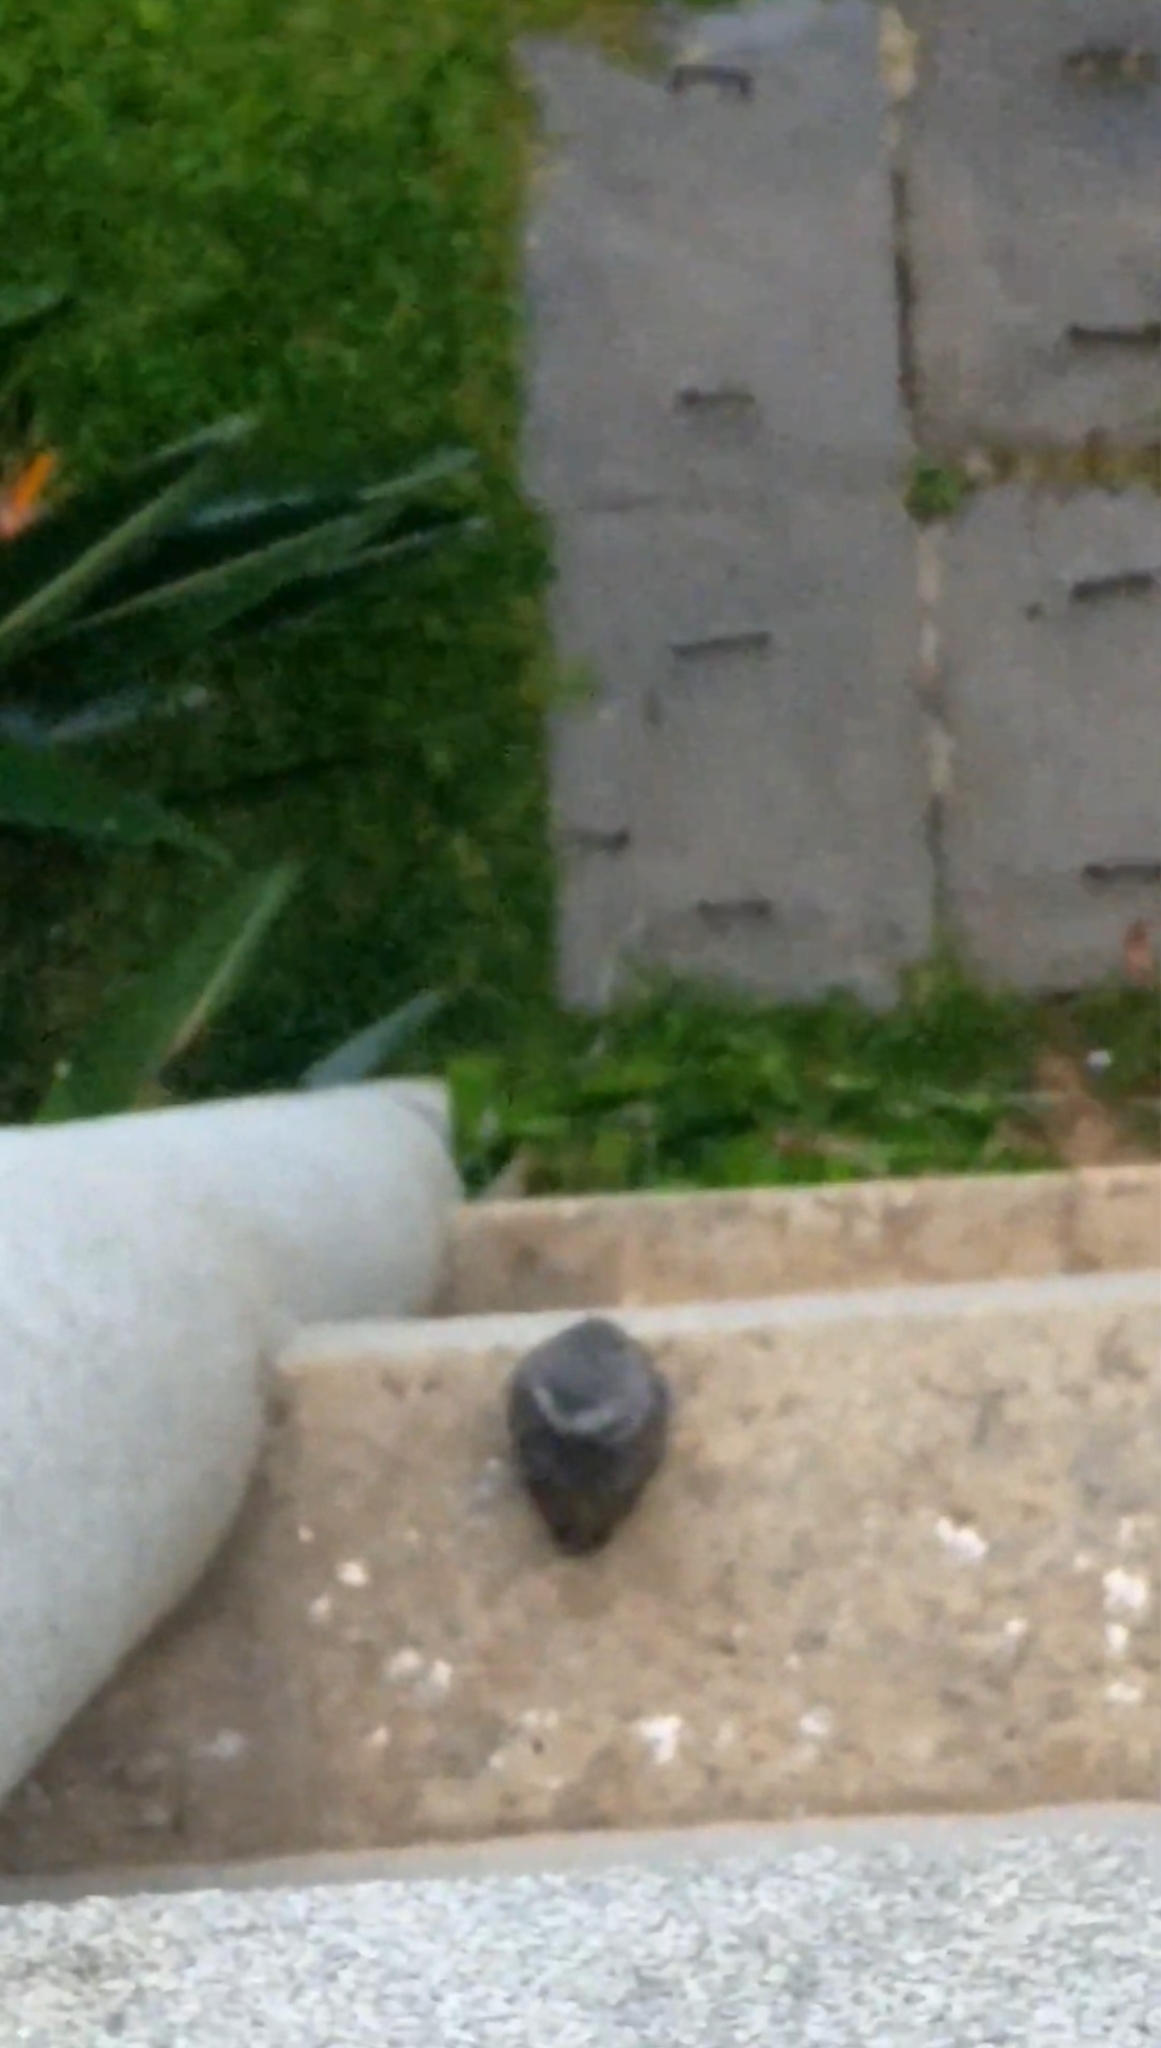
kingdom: Animalia
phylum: Chordata
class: Aves
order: Strigiformes
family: Strigidae
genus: Athene
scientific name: Athene brama
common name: Spotted owlet
